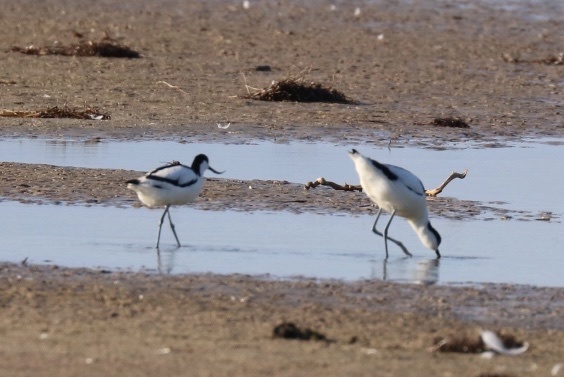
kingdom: Animalia
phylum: Chordata
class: Aves
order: Charadriiformes
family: Recurvirostridae
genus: Recurvirostra
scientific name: Recurvirostra avosetta
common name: Pied avocet
